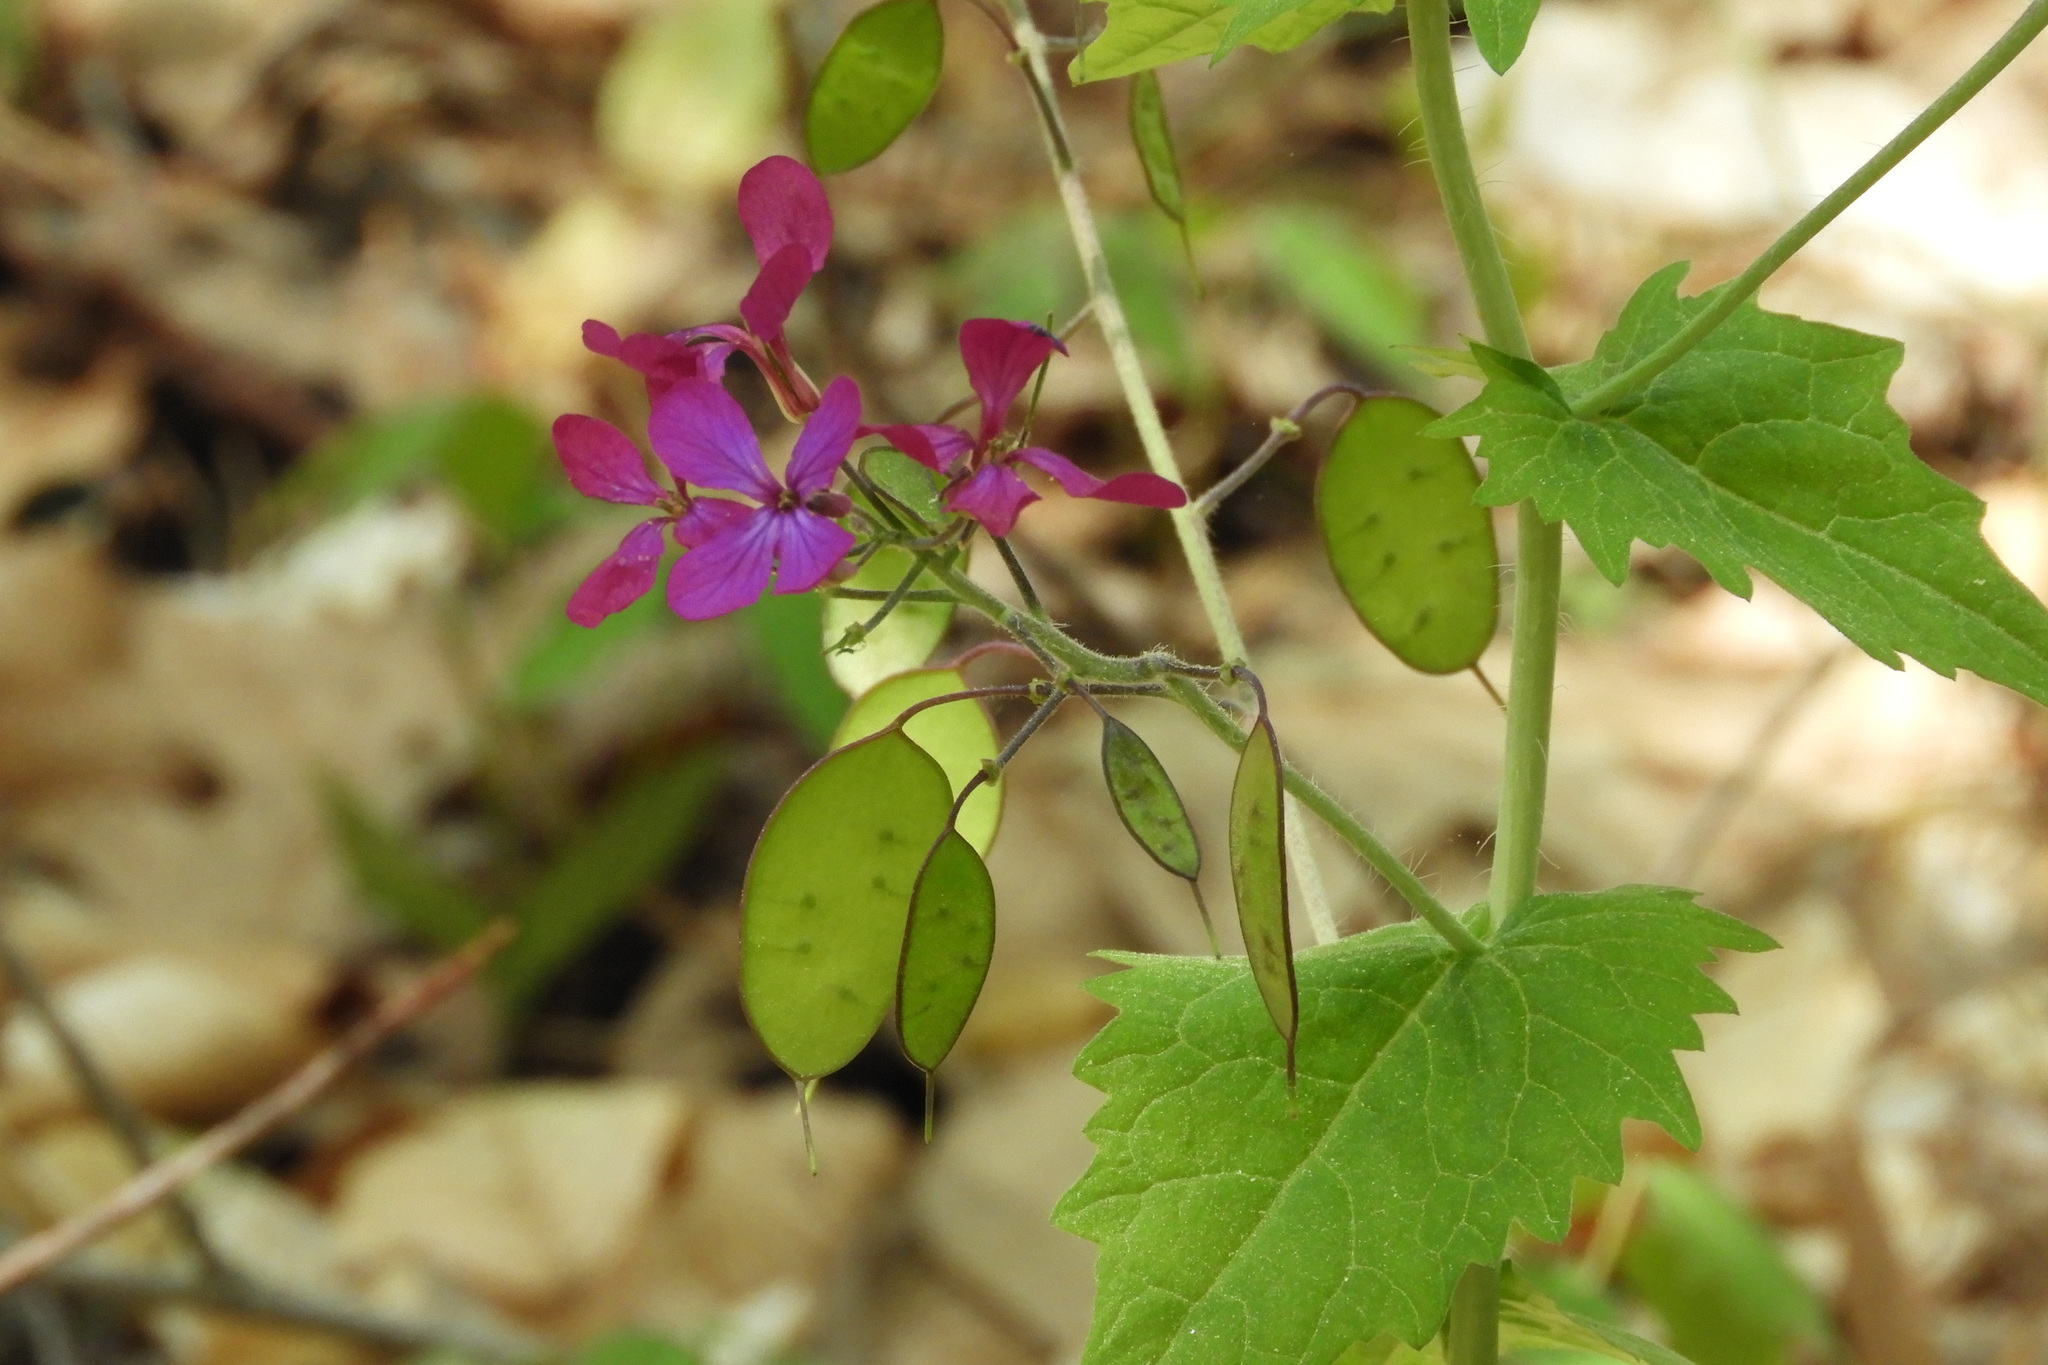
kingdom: Plantae
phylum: Tracheophyta
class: Magnoliopsida
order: Brassicales
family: Brassicaceae
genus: Lunaria
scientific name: Lunaria annua
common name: Honesty
